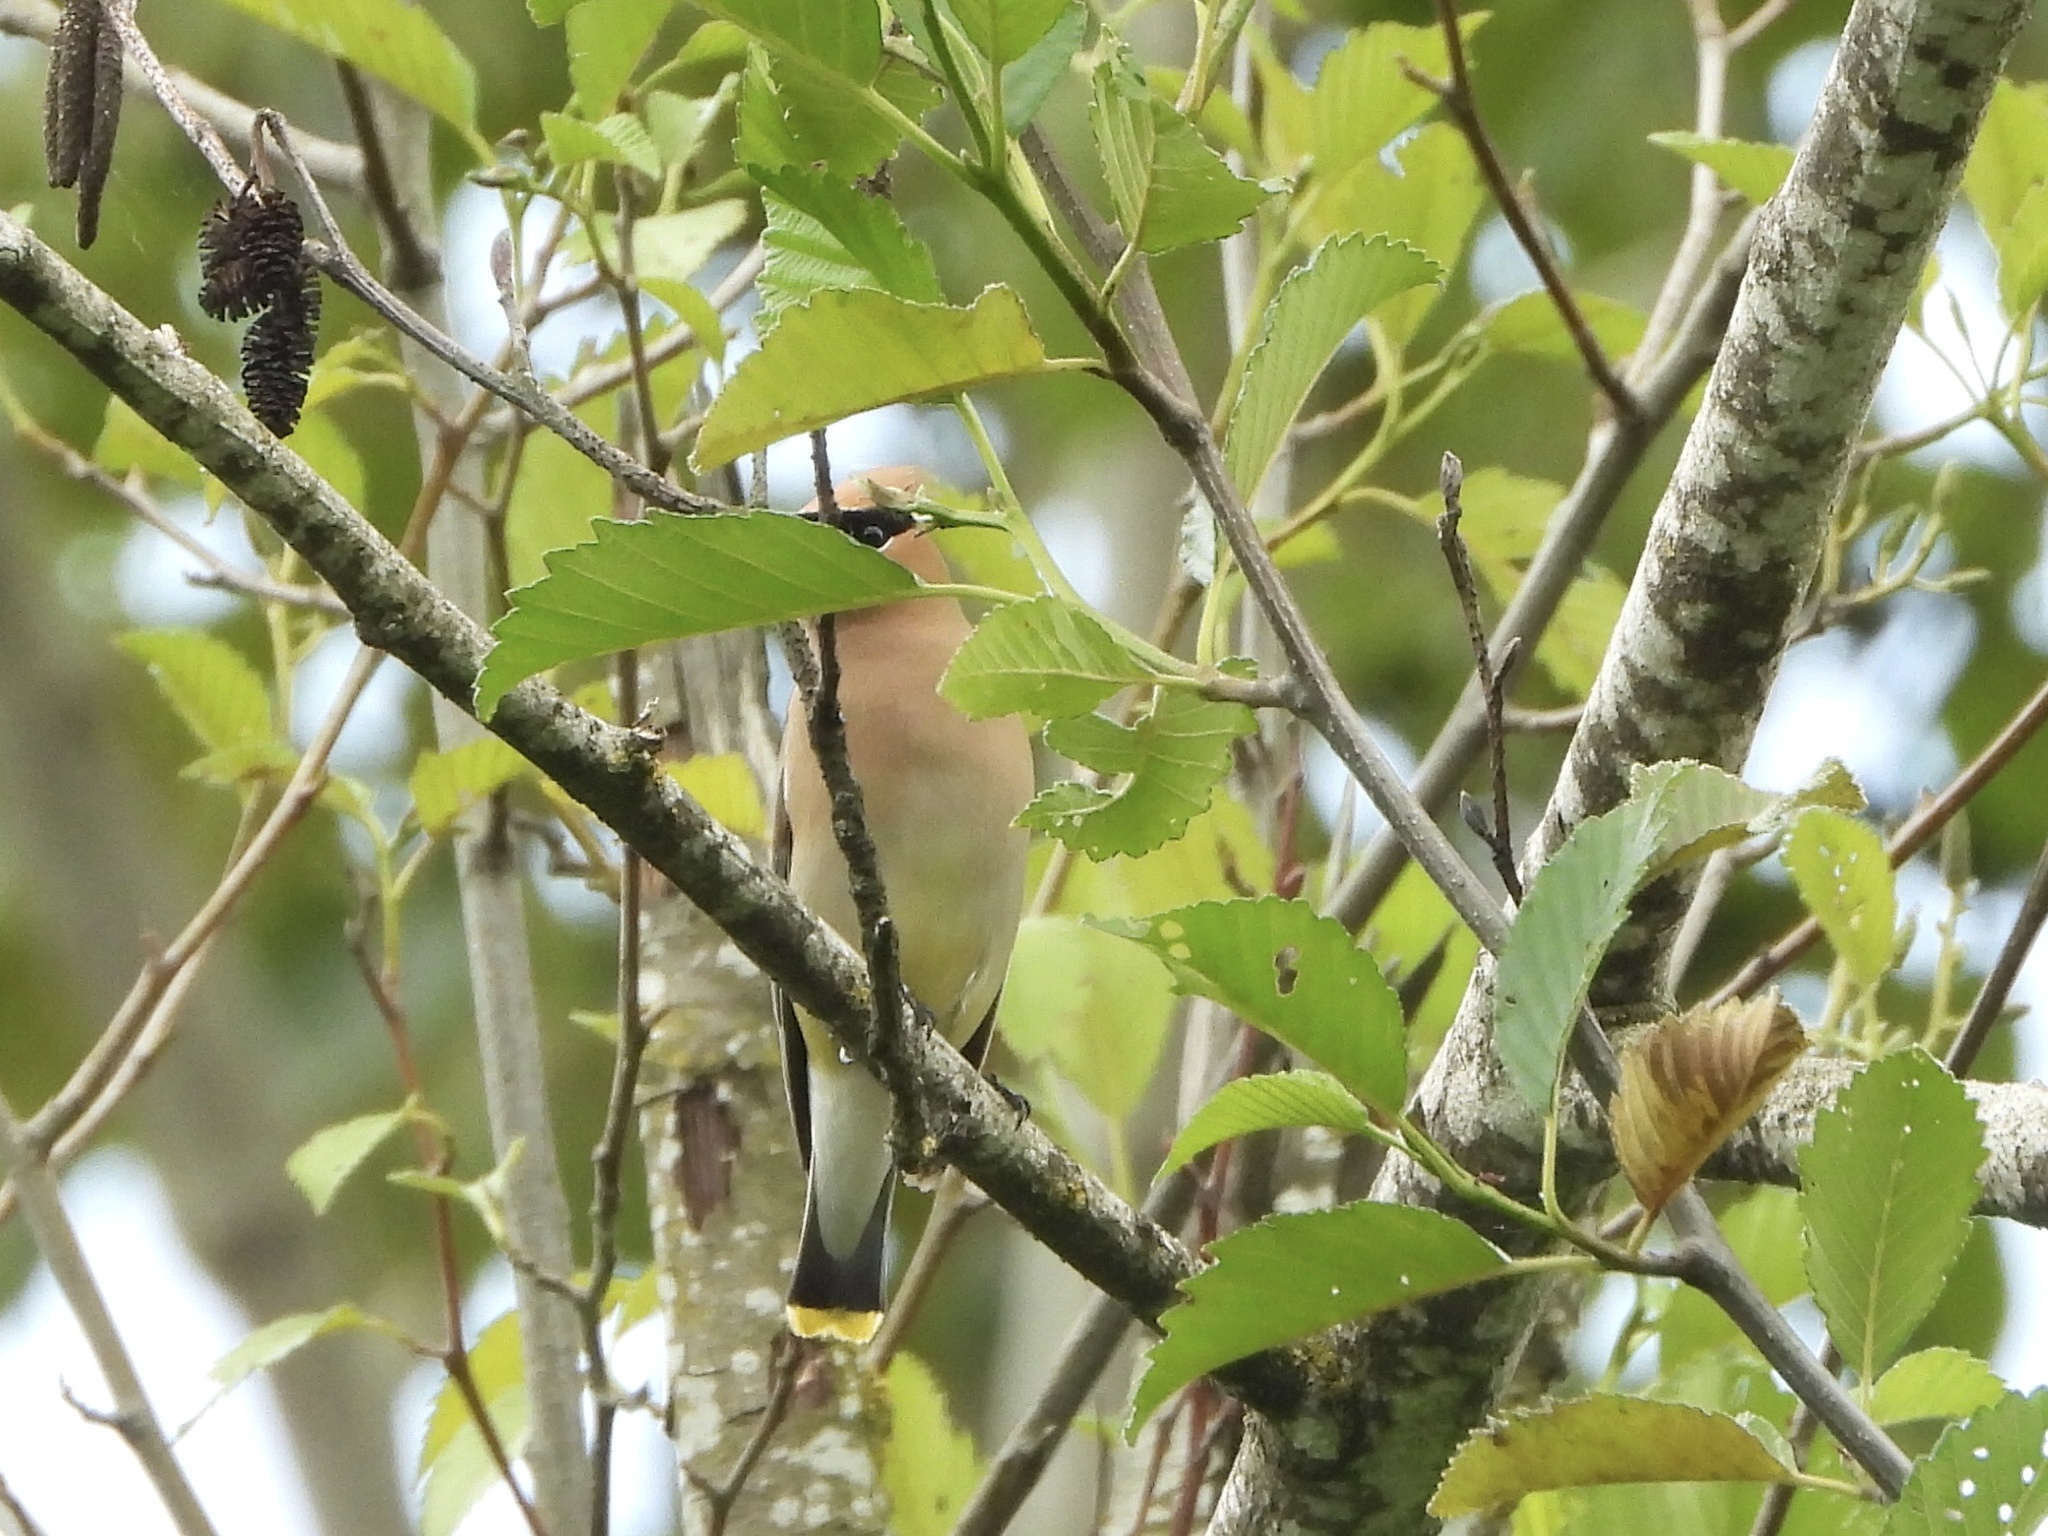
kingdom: Animalia
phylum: Chordata
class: Aves
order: Passeriformes
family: Bombycillidae
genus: Bombycilla
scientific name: Bombycilla cedrorum
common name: Cedar waxwing
